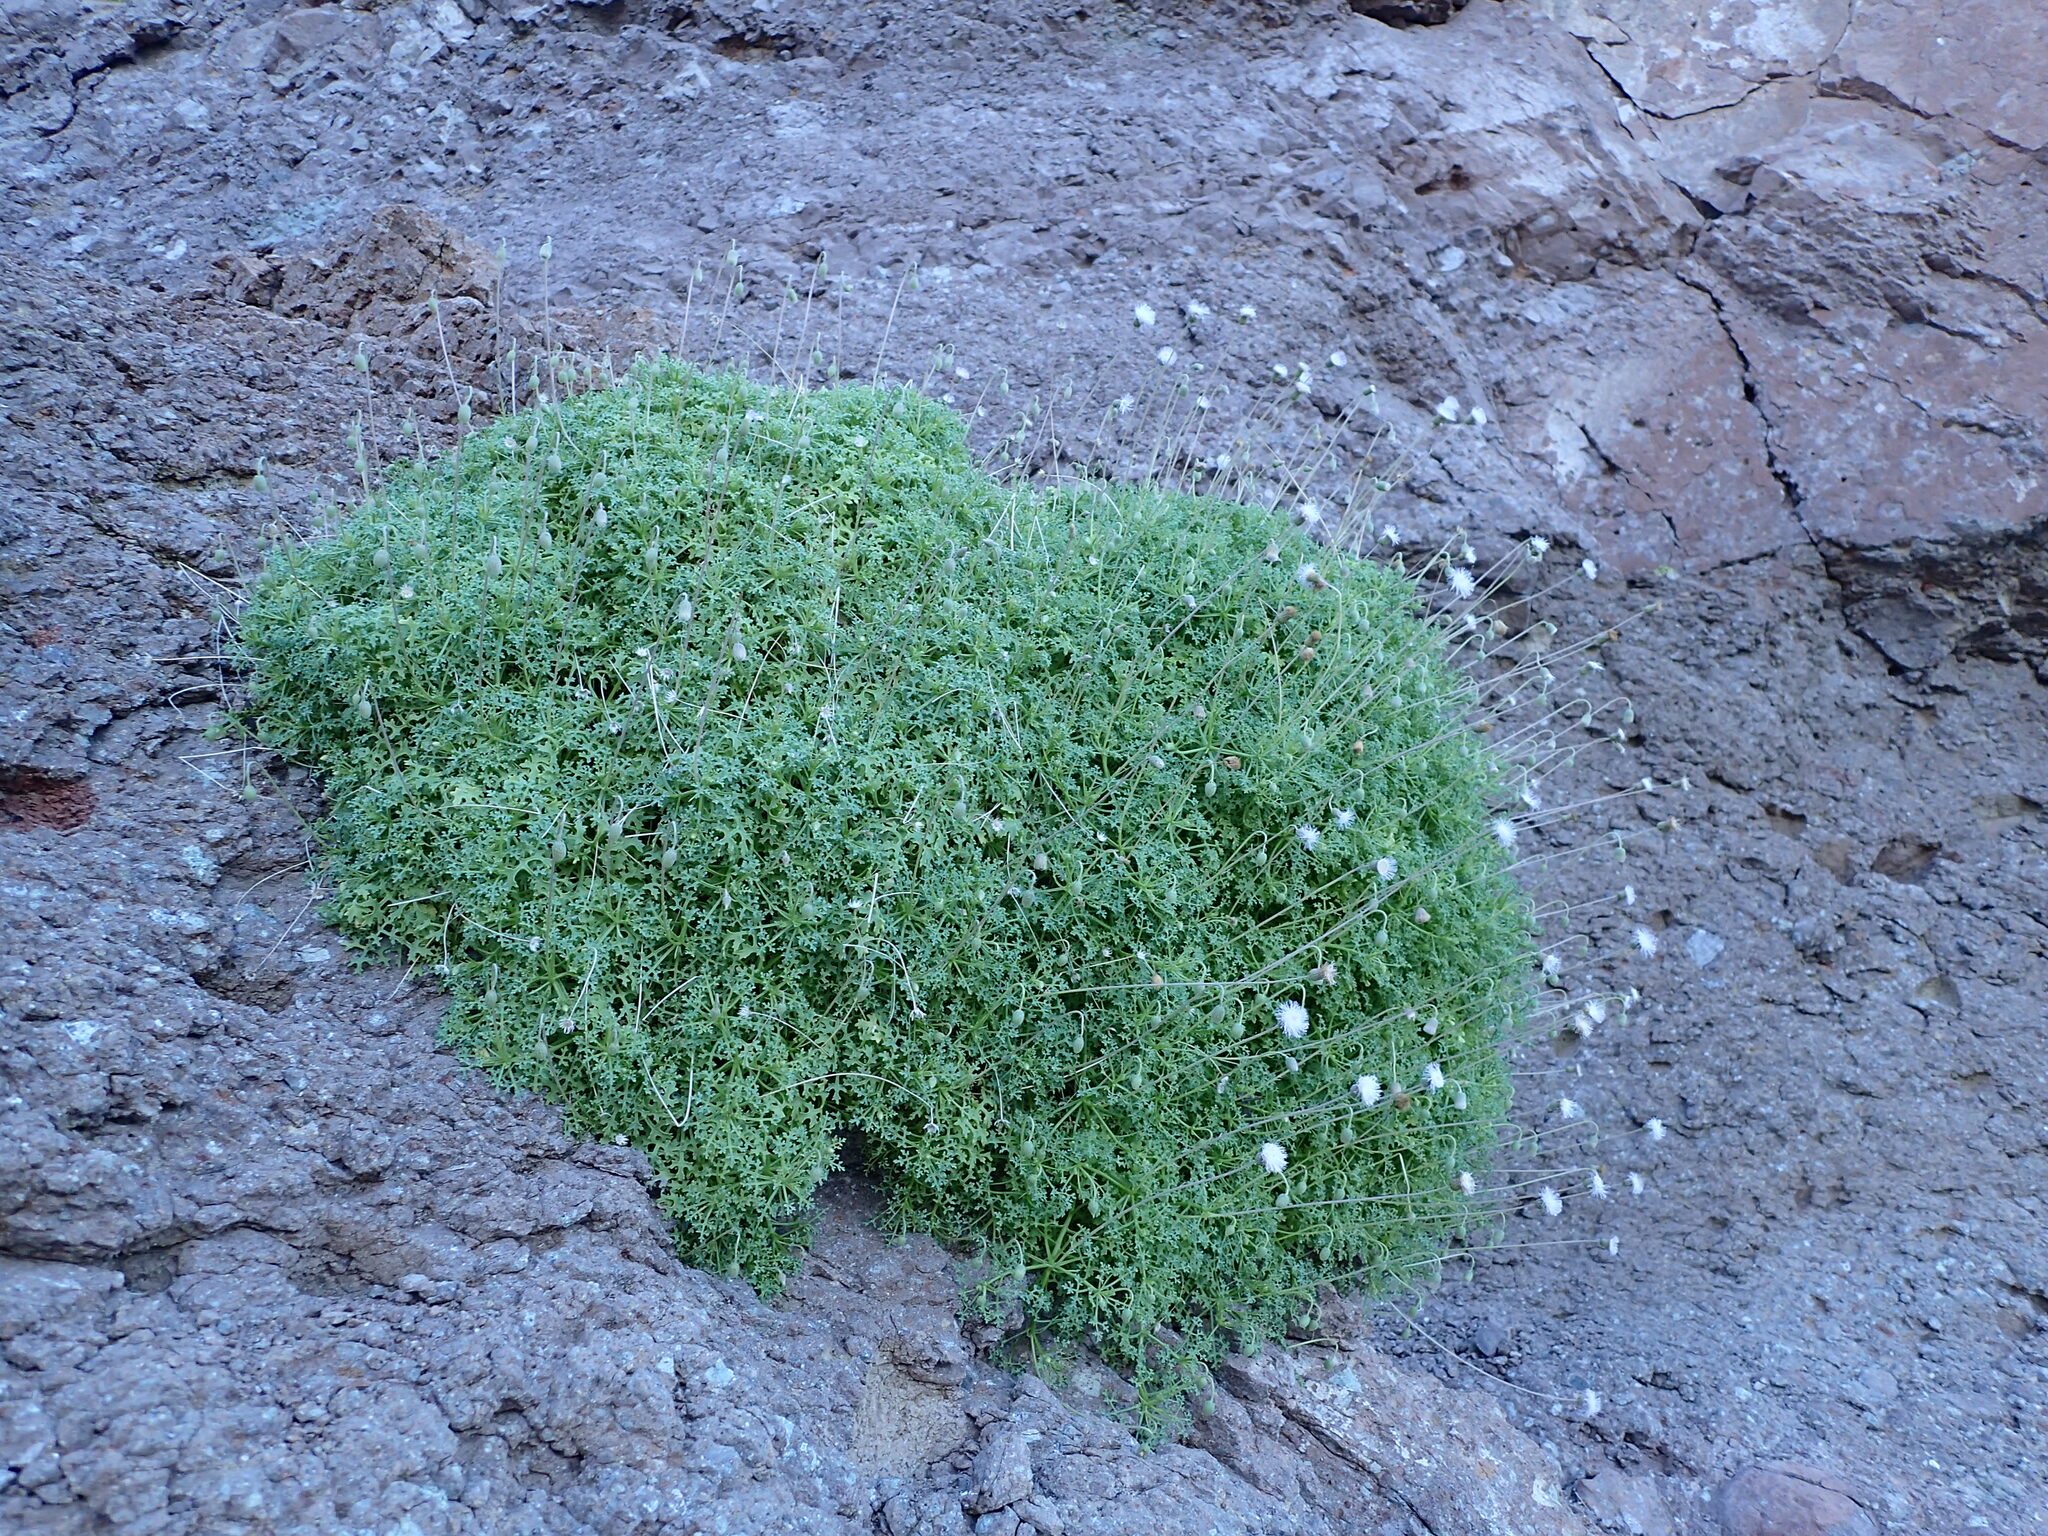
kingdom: Plantae
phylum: Tracheophyta
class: Magnoliopsida
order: Asterales
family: Asteraceae
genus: Hofmeisteria
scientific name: Hofmeisteria fasciculata
